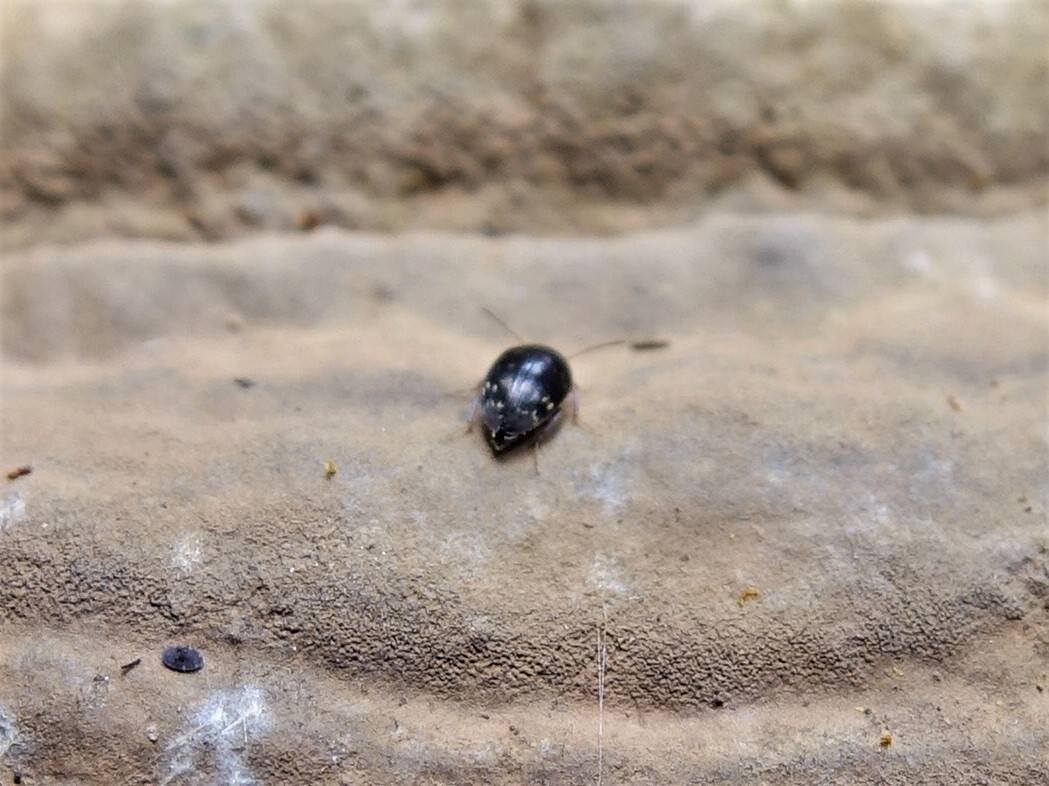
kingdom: Animalia
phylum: Arthropoda
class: Insecta
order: Coleoptera
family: Leiodidae
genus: Zearagytodes
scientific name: Zearagytodes maculifer
